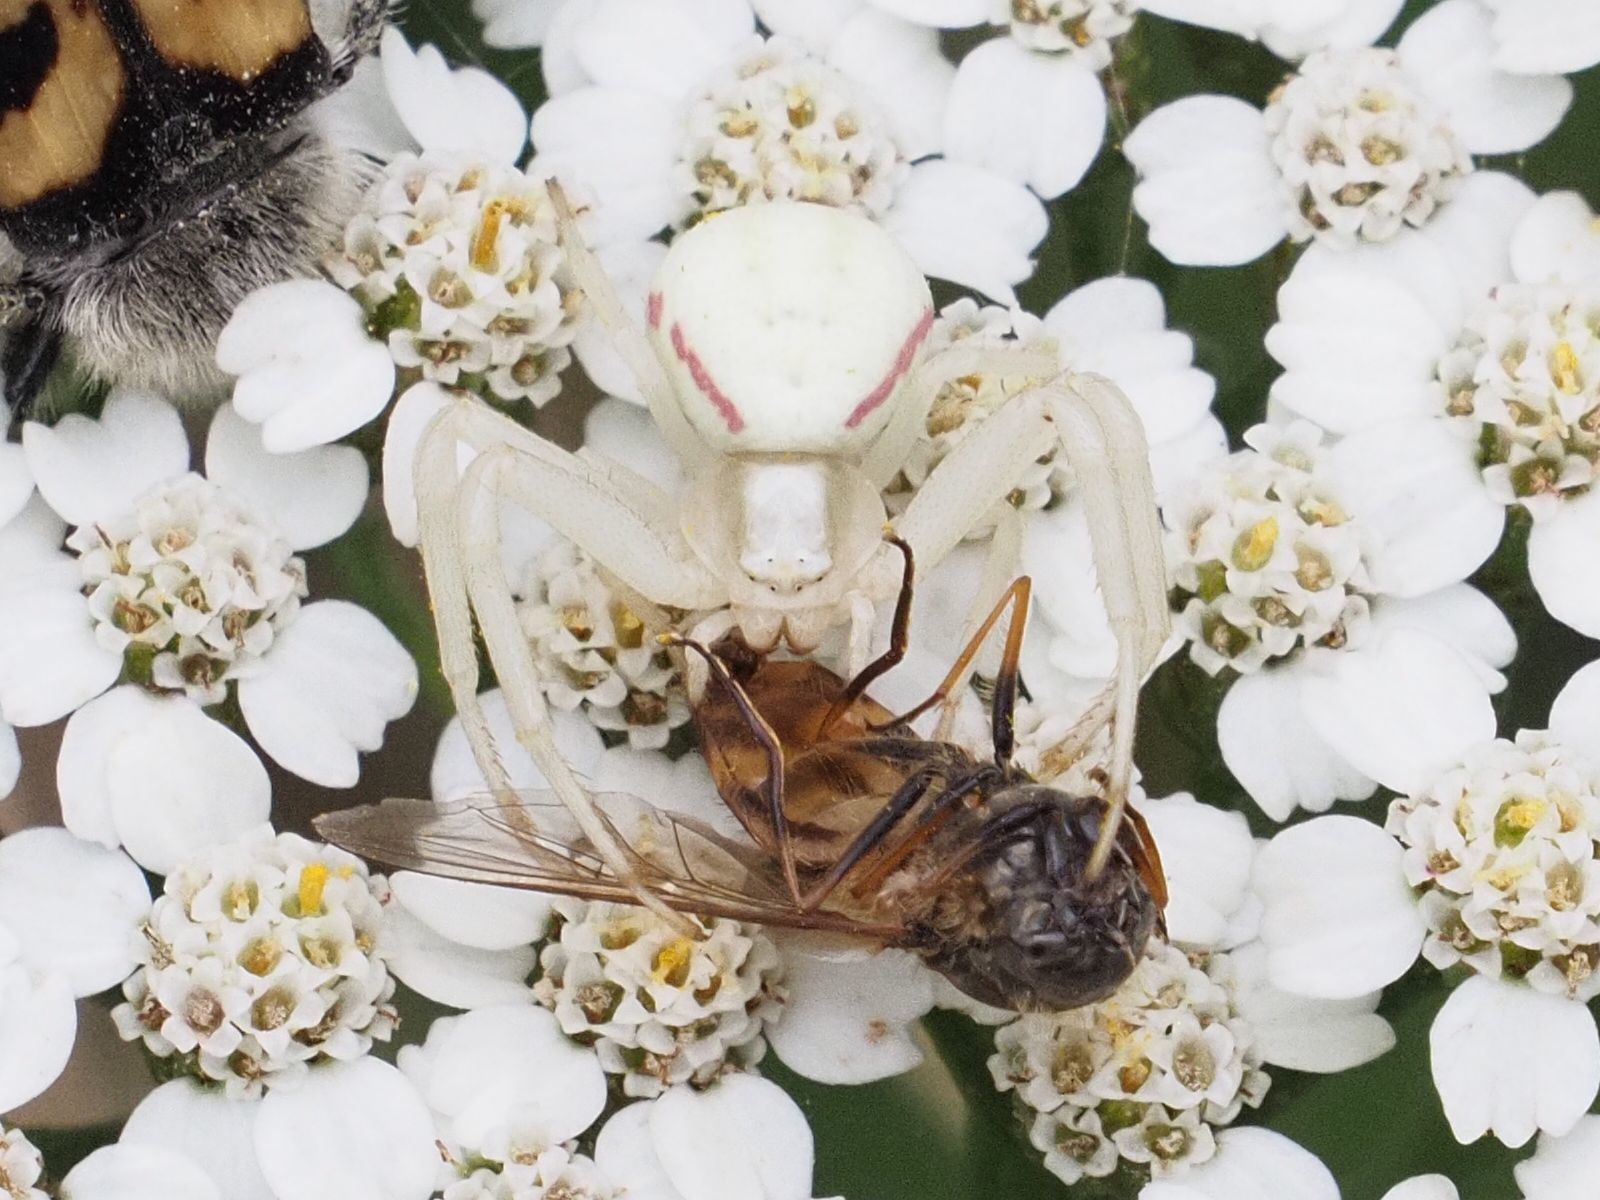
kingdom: Animalia
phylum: Arthropoda
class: Arachnida
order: Araneae
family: Thomisidae
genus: Misumena
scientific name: Misumena vatia
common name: Goldenrod crab spider
